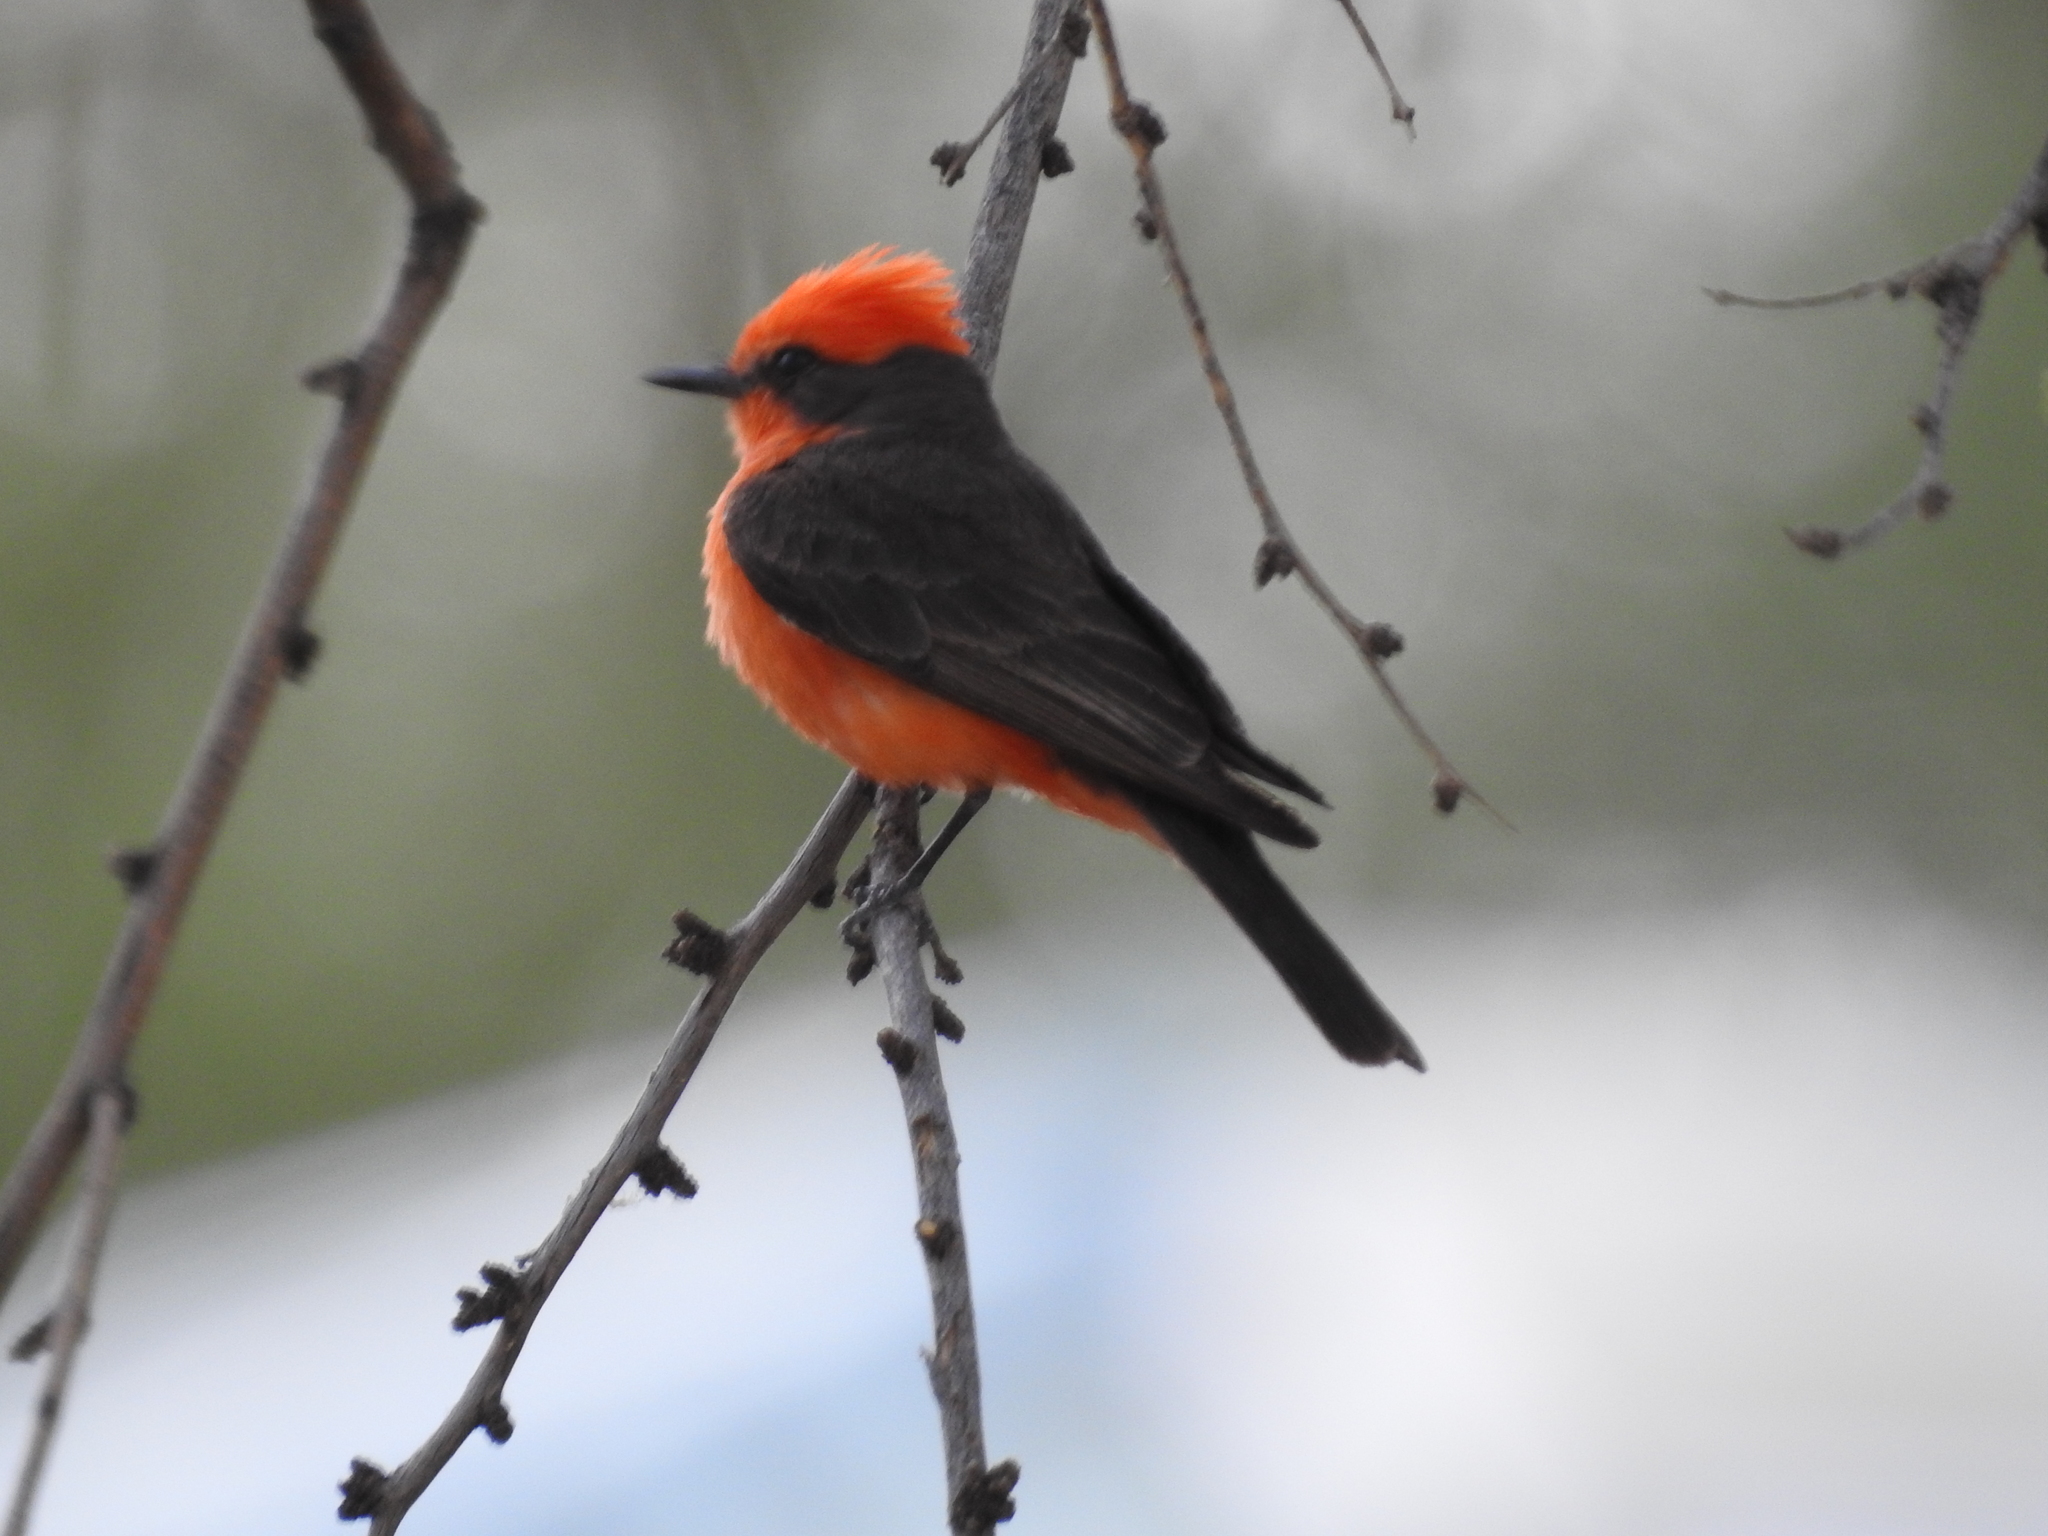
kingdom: Animalia
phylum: Chordata
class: Aves
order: Passeriformes
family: Tyrannidae
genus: Pyrocephalus
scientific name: Pyrocephalus rubinus
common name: Vermilion flycatcher
